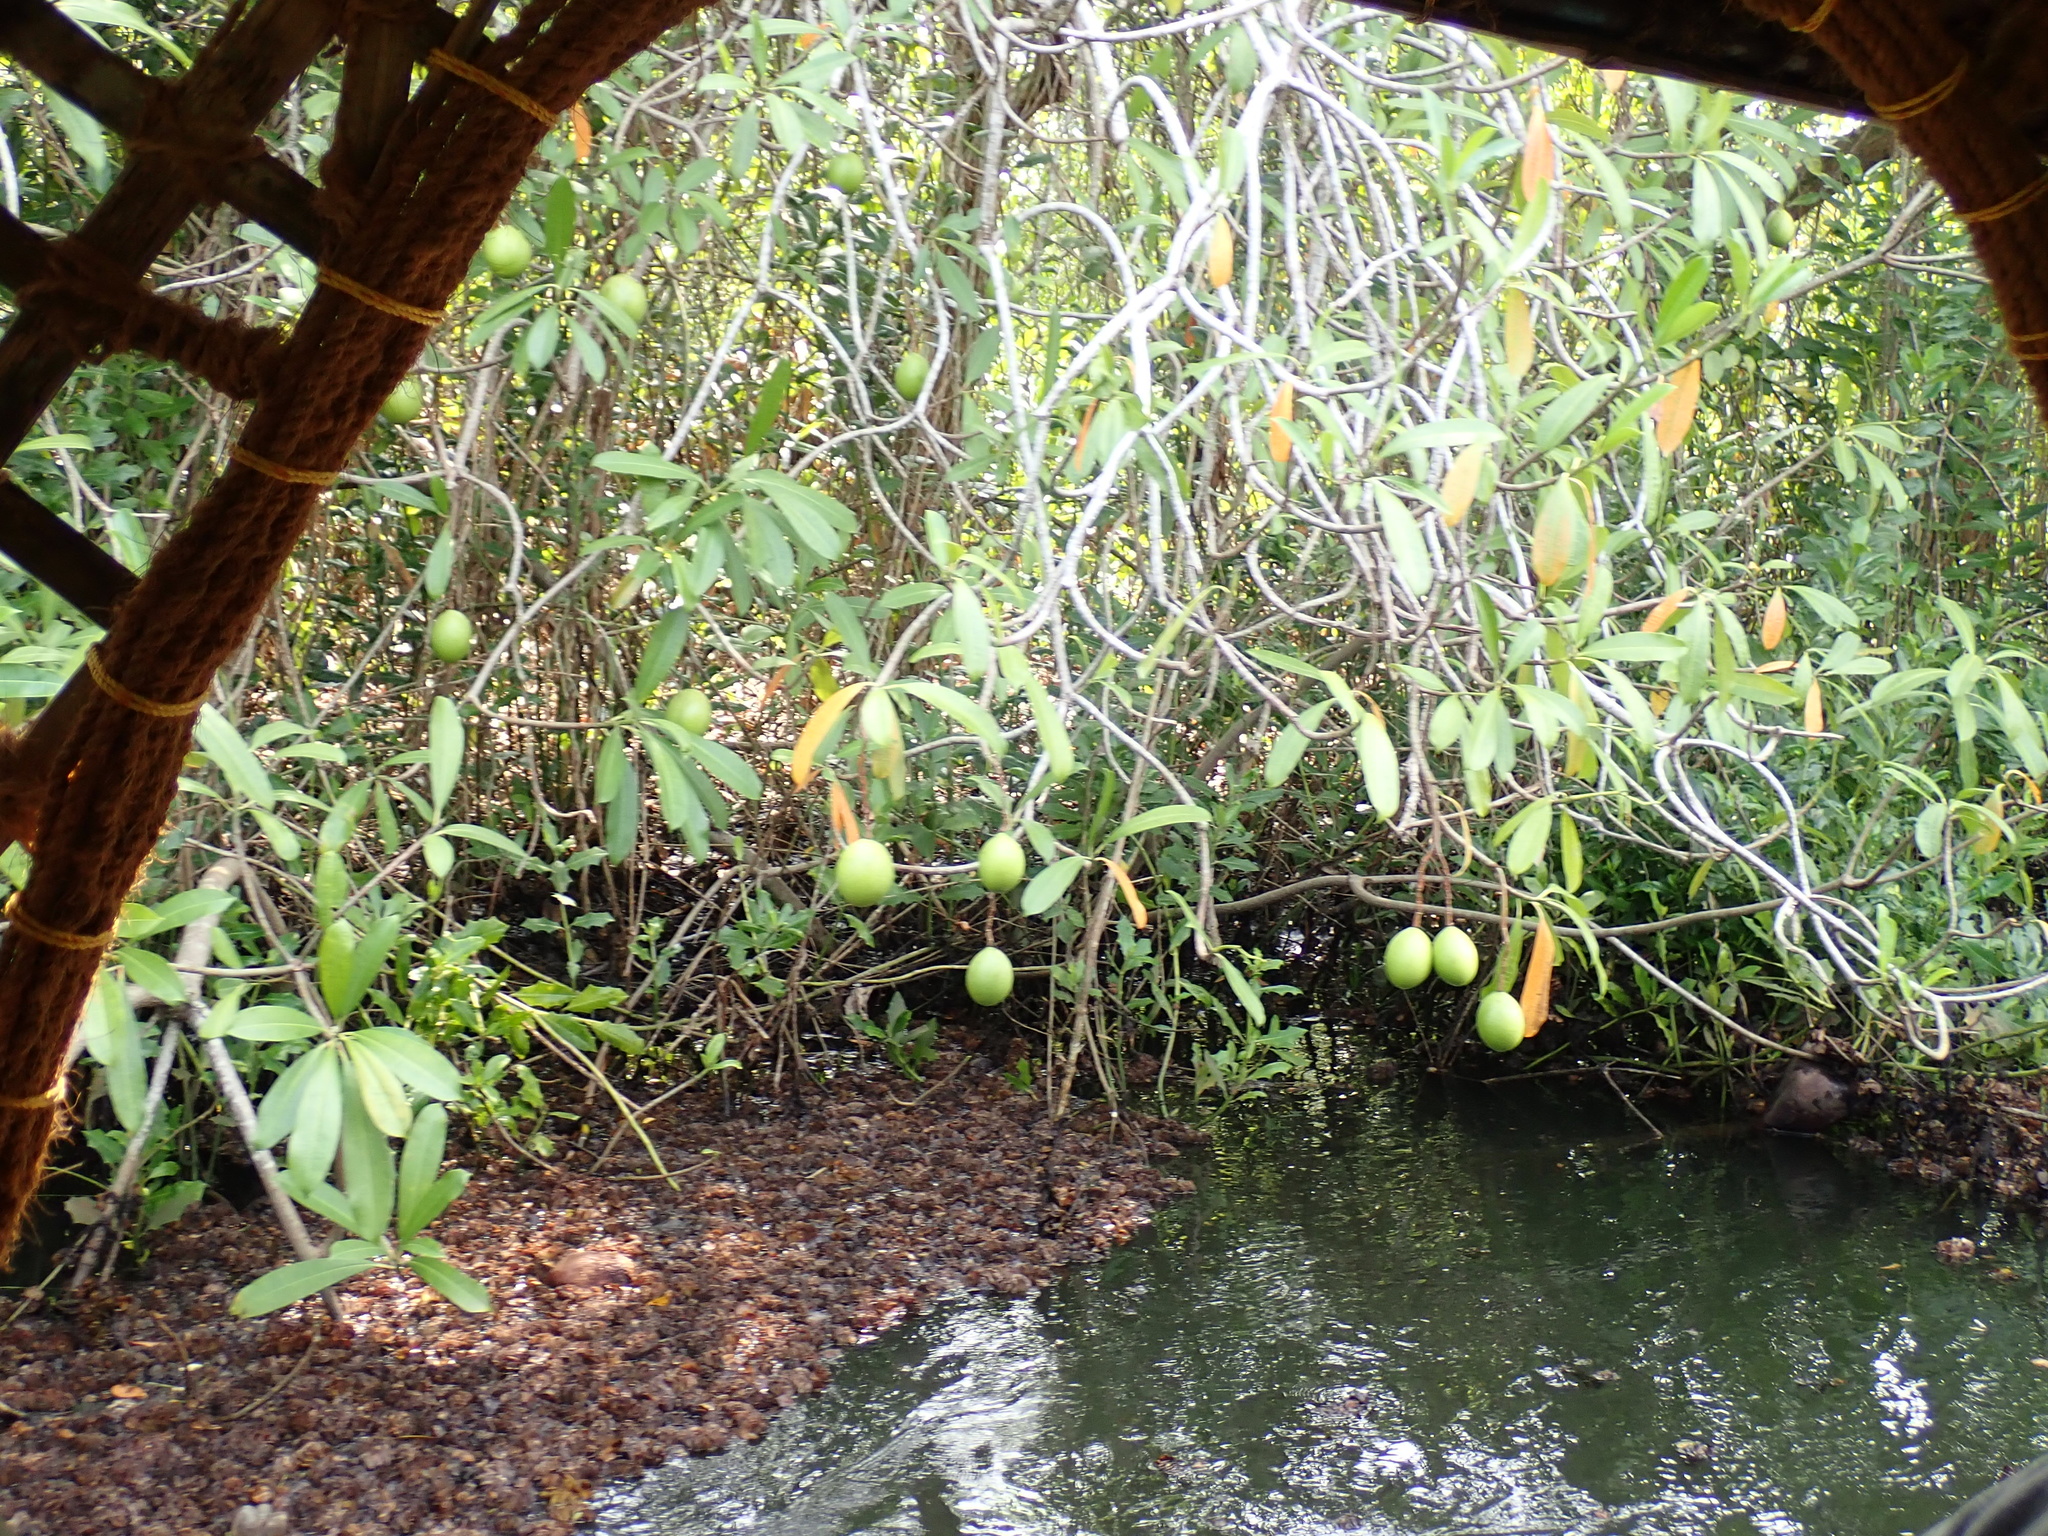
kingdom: Plantae
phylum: Tracheophyta
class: Magnoliopsida
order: Gentianales
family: Apocynaceae
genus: Cerbera
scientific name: Cerbera odollam
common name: Pong-pong
